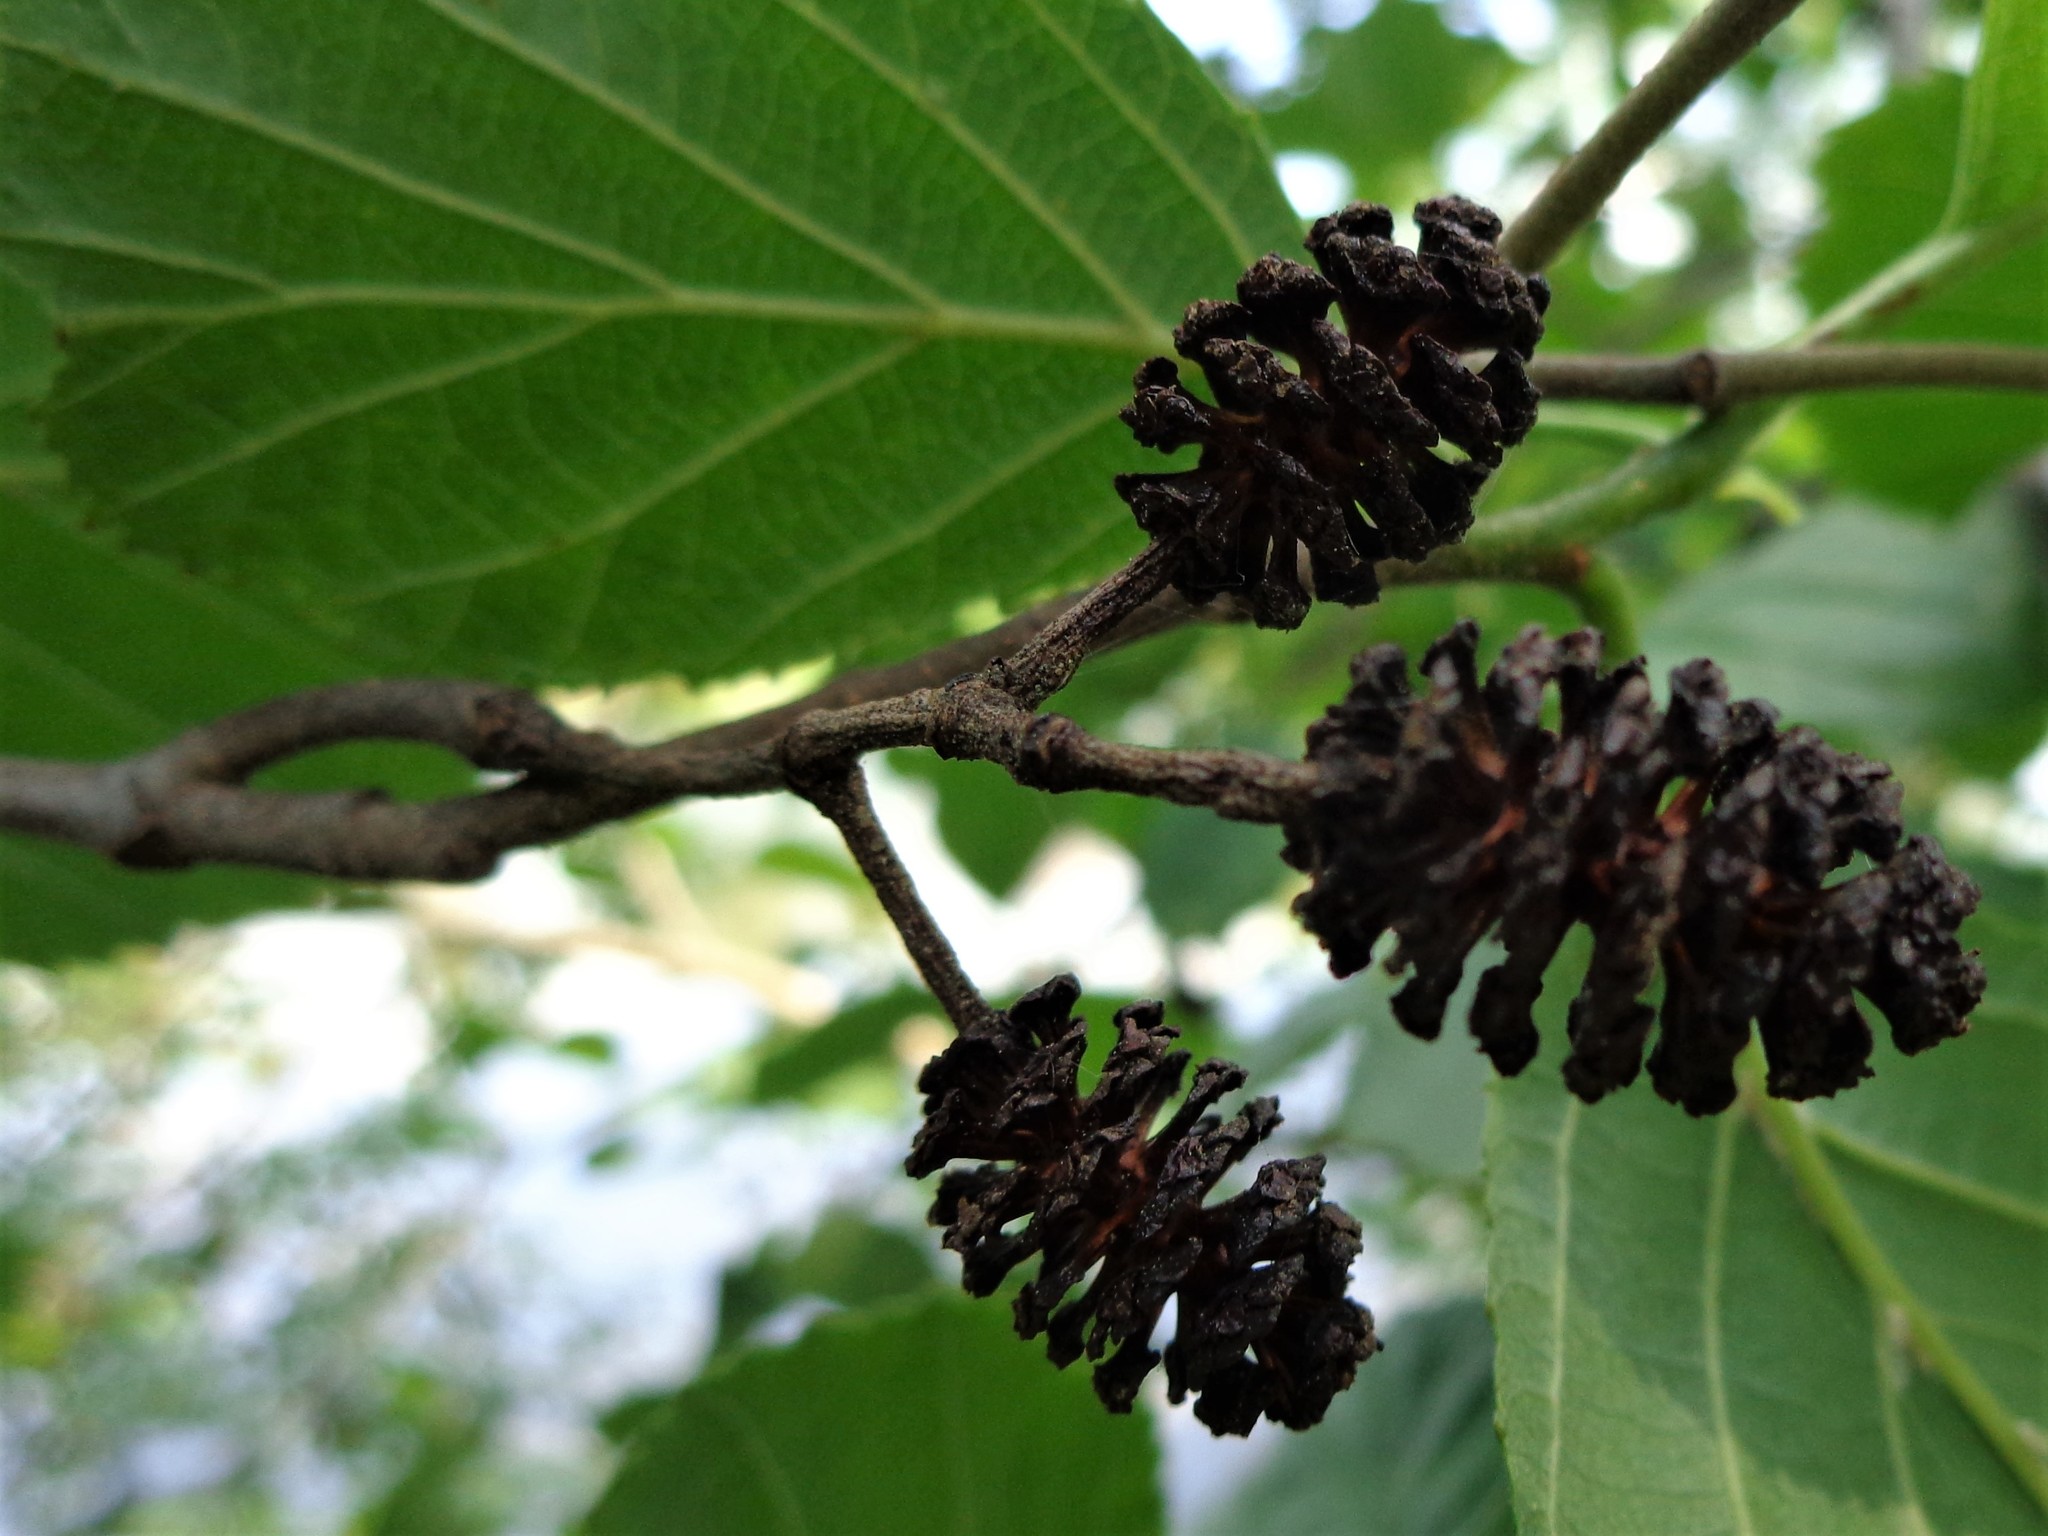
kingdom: Plantae
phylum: Tracheophyta
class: Magnoliopsida
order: Fagales
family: Betulaceae
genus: Alnus
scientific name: Alnus glutinosa
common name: Black alder
